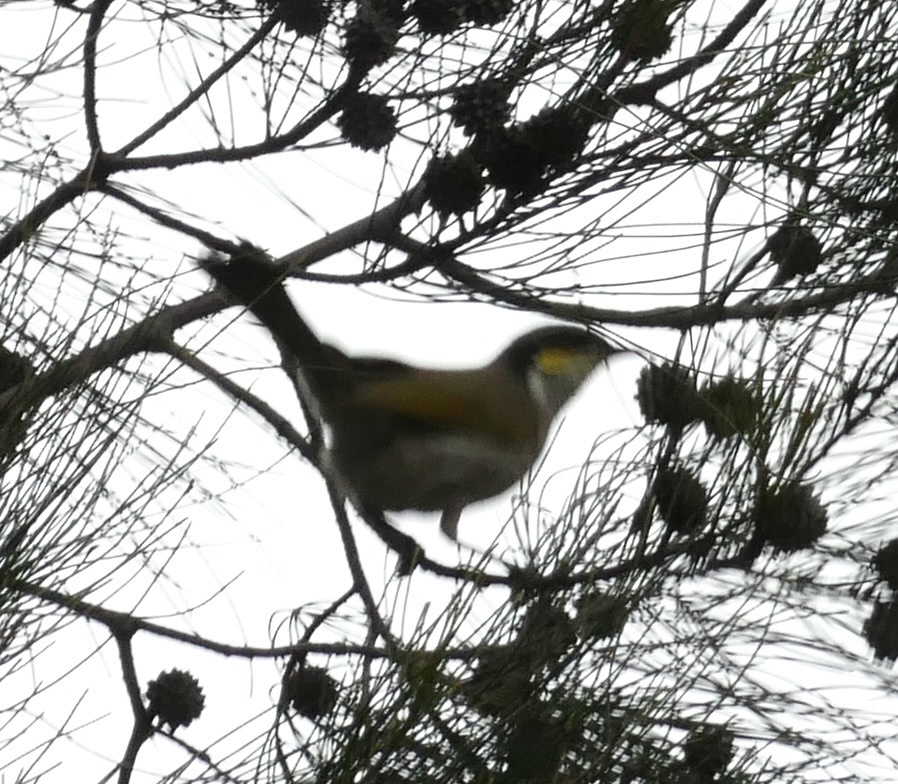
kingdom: Animalia
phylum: Chordata
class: Aves
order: Passeriformes
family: Meliphagidae
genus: Gavicalis
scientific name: Gavicalis virescens
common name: Singing honeyeater
